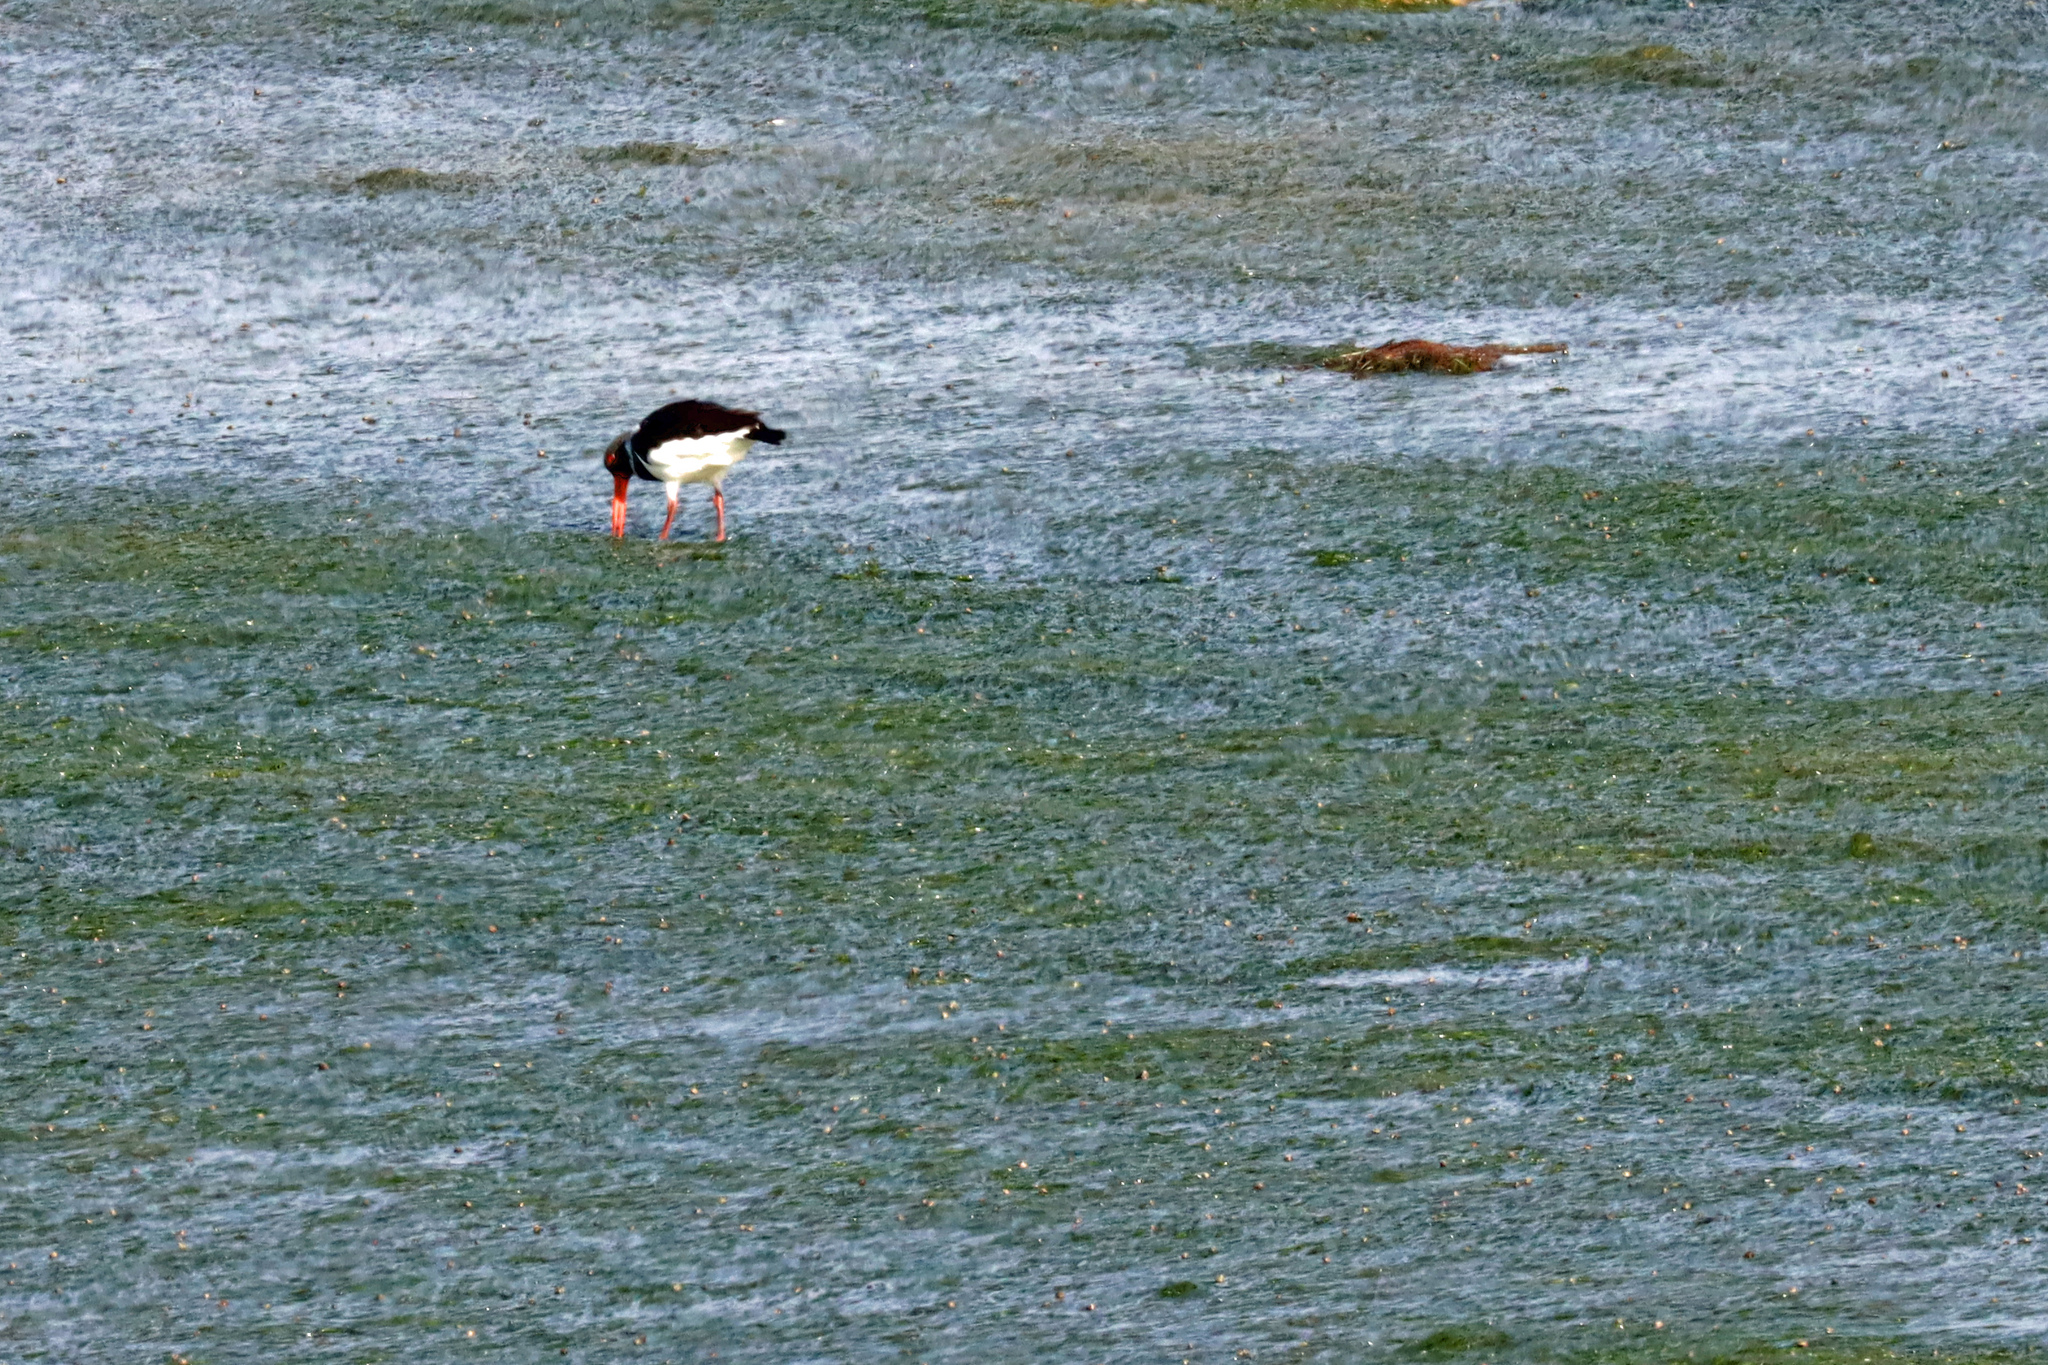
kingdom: Animalia
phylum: Chordata
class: Aves
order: Charadriiformes
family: Haematopodidae
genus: Haematopus
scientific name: Haematopus ostralegus
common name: Eurasian oystercatcher
